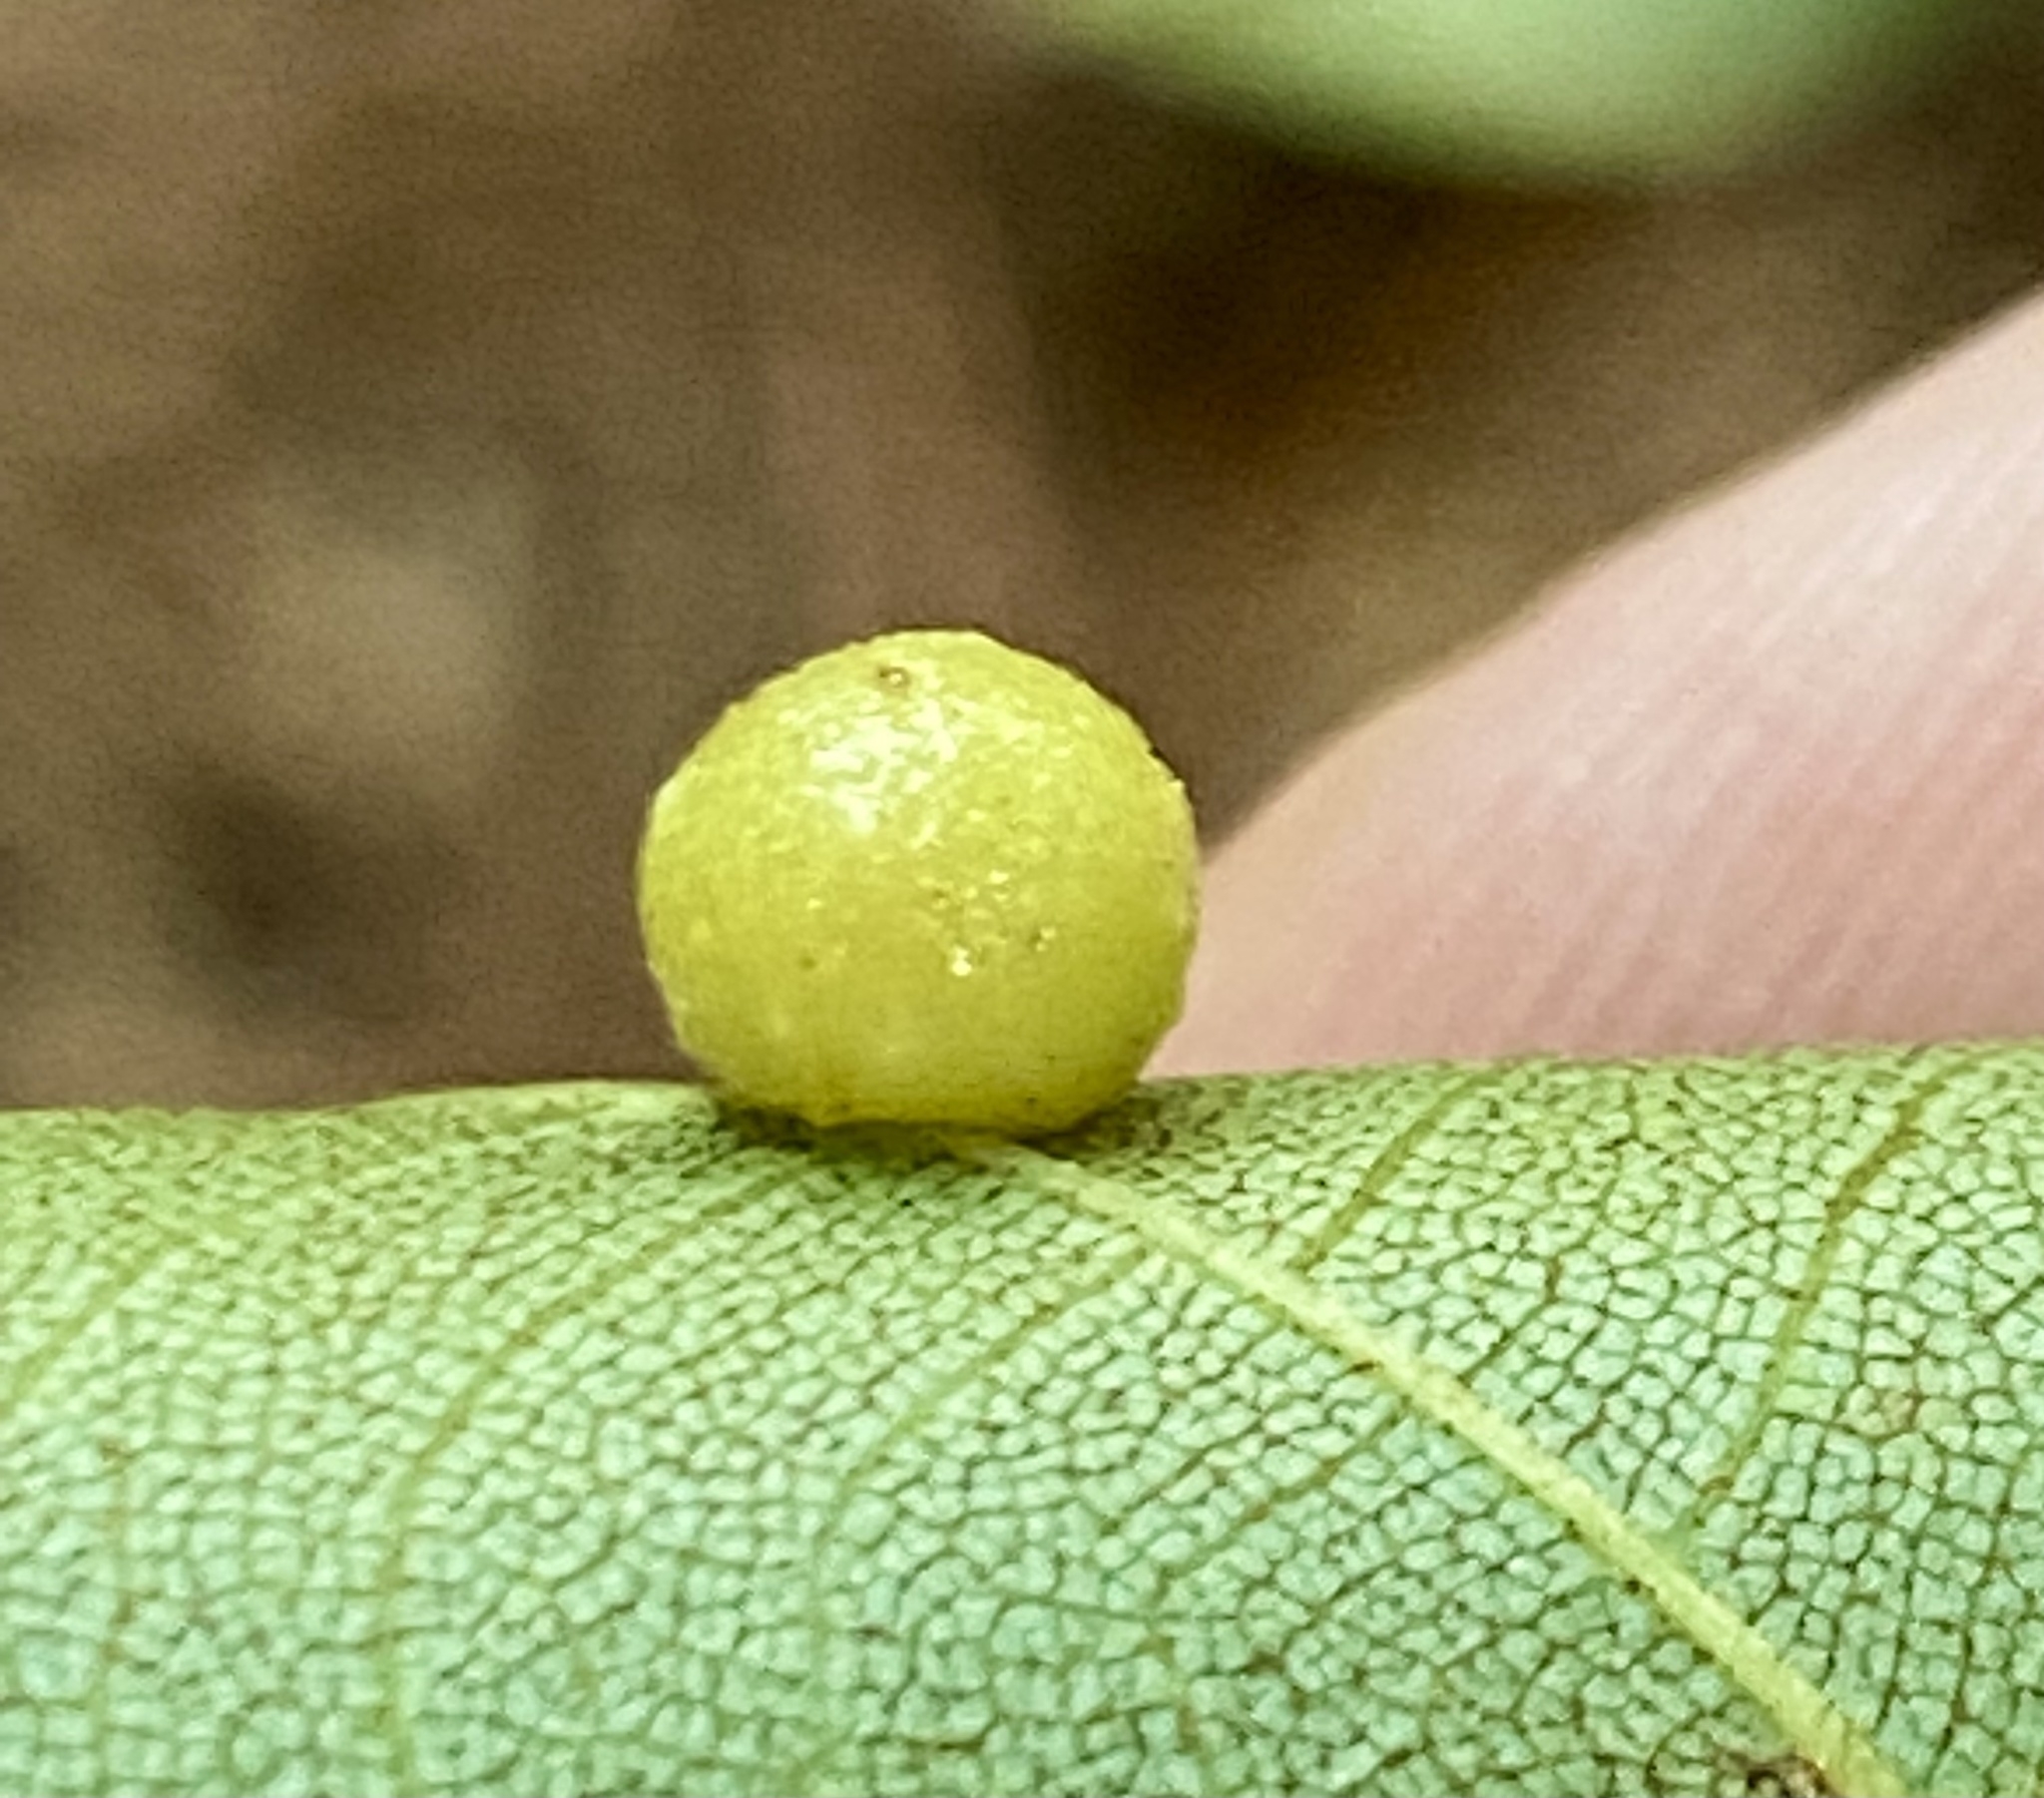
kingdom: Animalia
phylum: Arthropoda
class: Insecta
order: Diptera
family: Cecidomyiidae
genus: Caryomyia
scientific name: Caryomyia tuberculata
